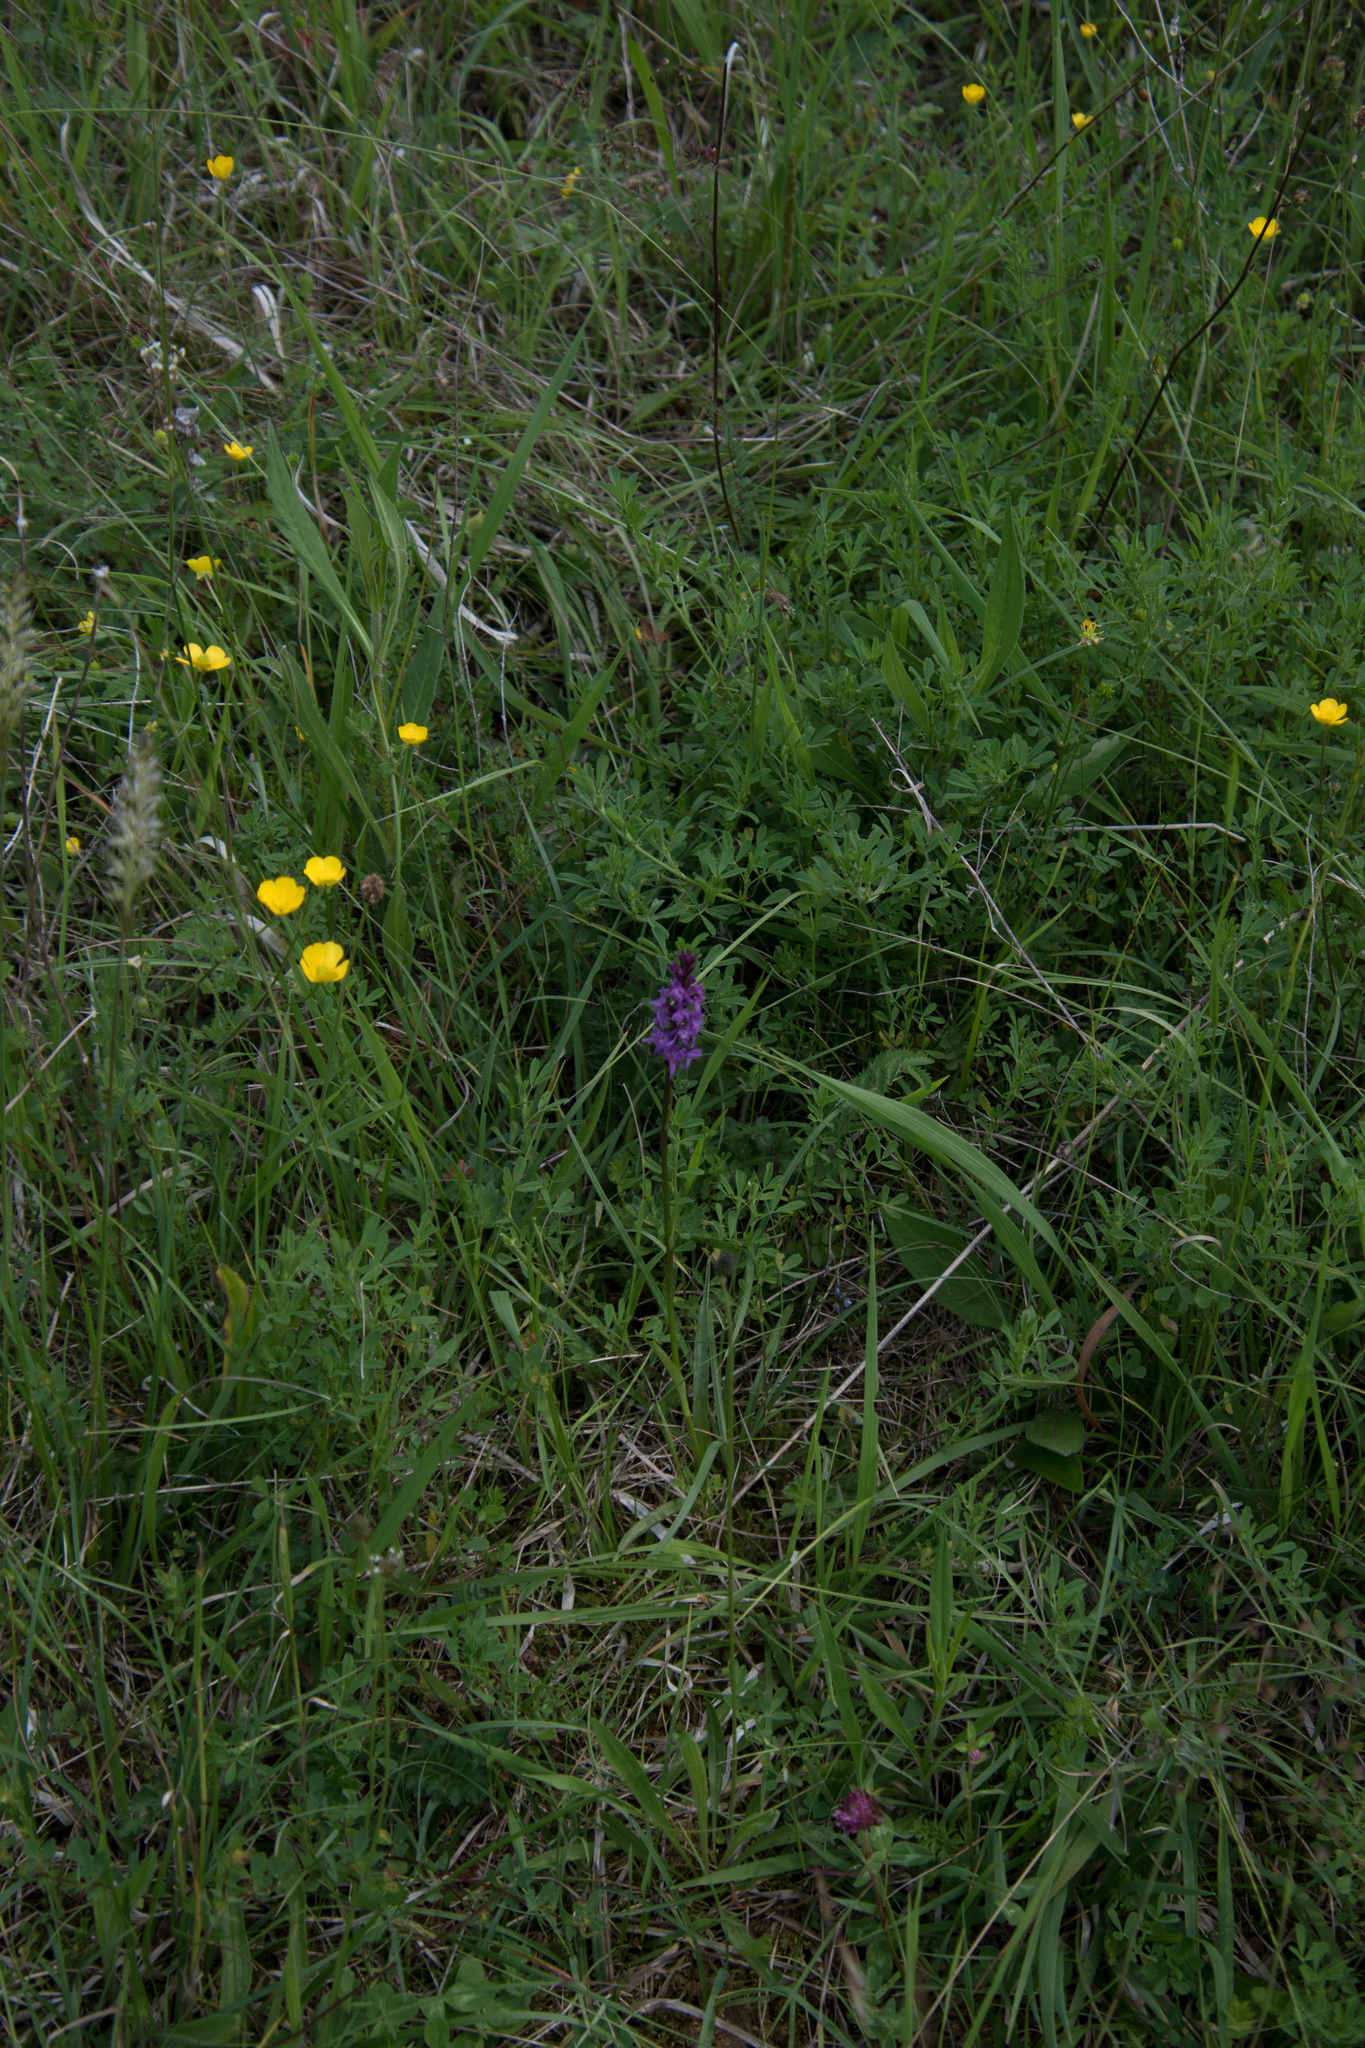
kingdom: Plantae
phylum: Tracheophyta
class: Liliopsida
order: Asparagales
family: Orchidaceae
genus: Dactylodenia
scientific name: Dactylodenia
